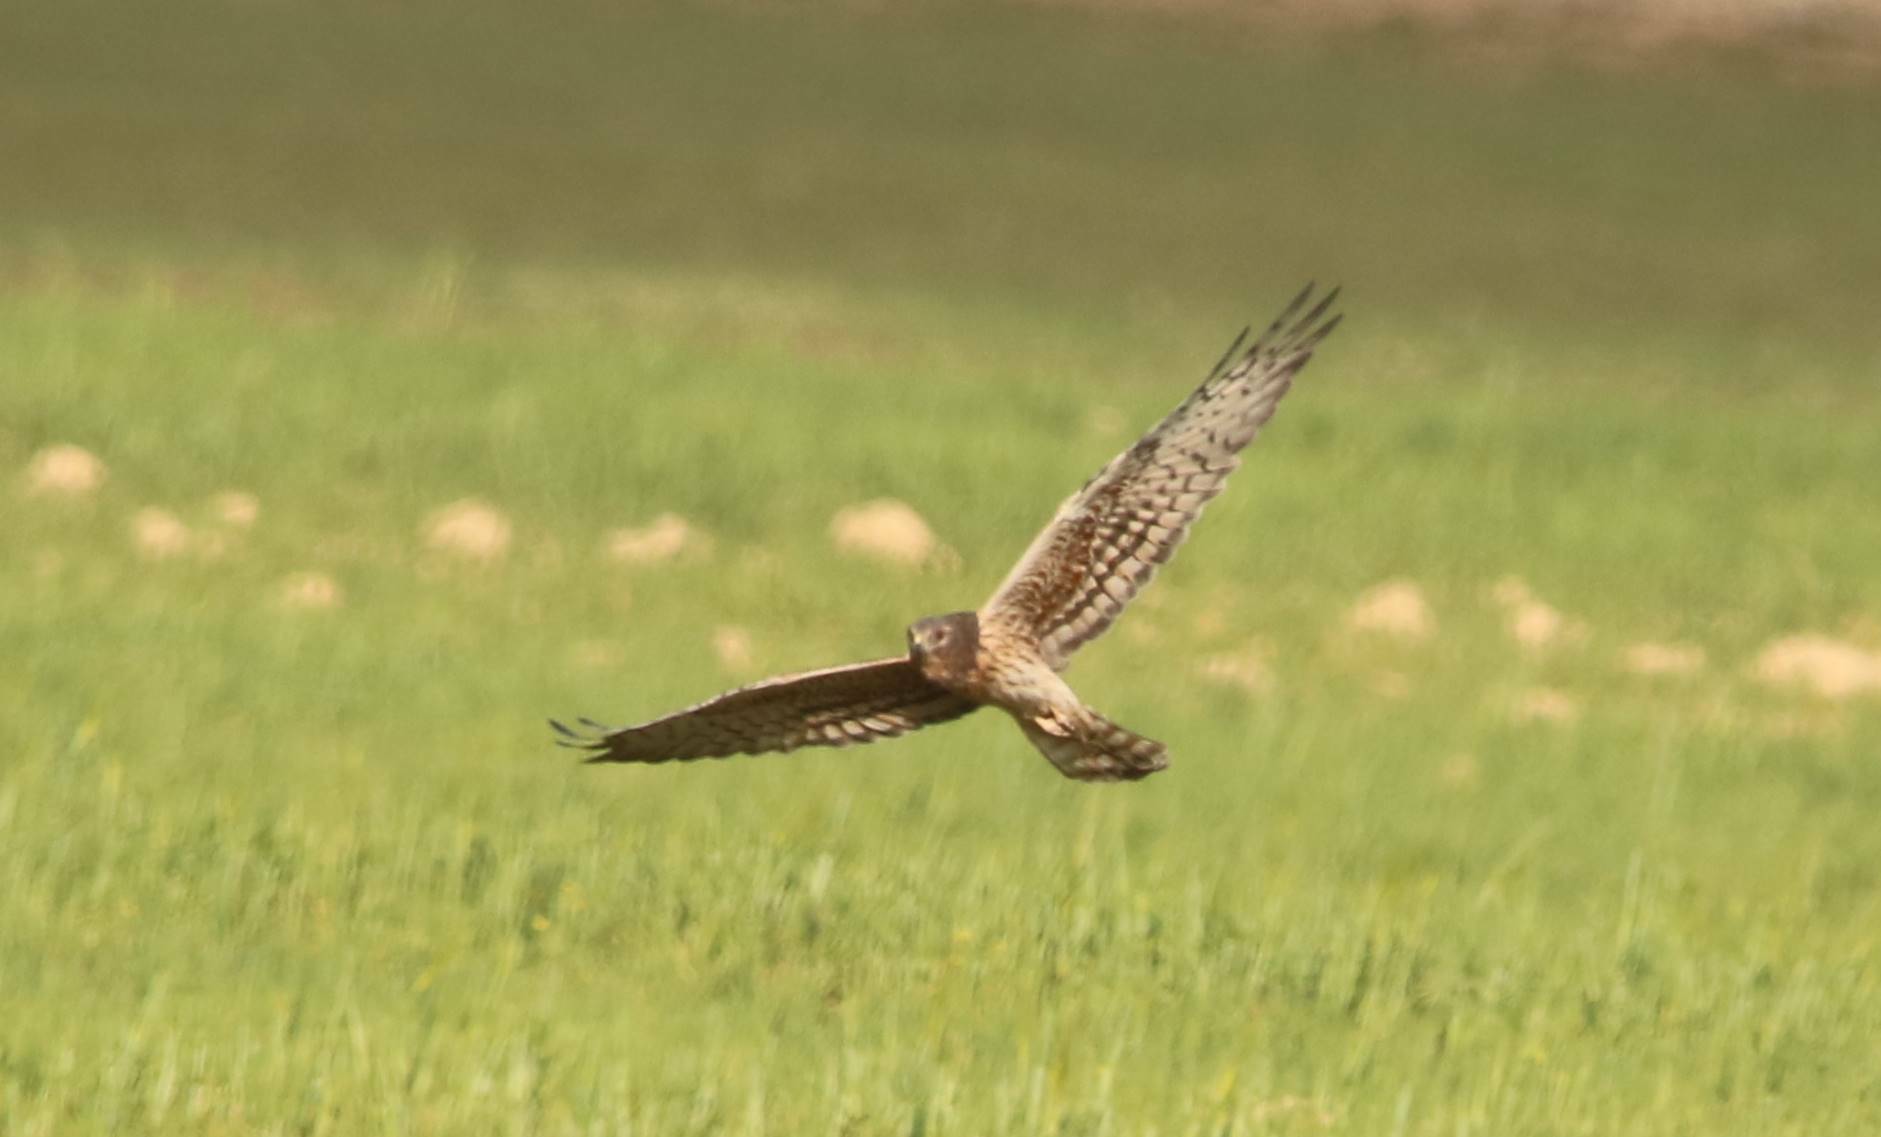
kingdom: Animalia
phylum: Chordata
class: Aves
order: Accipitriformes
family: Accipitridae
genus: Circus
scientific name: Circus pygargus
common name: Montagu's harrier
